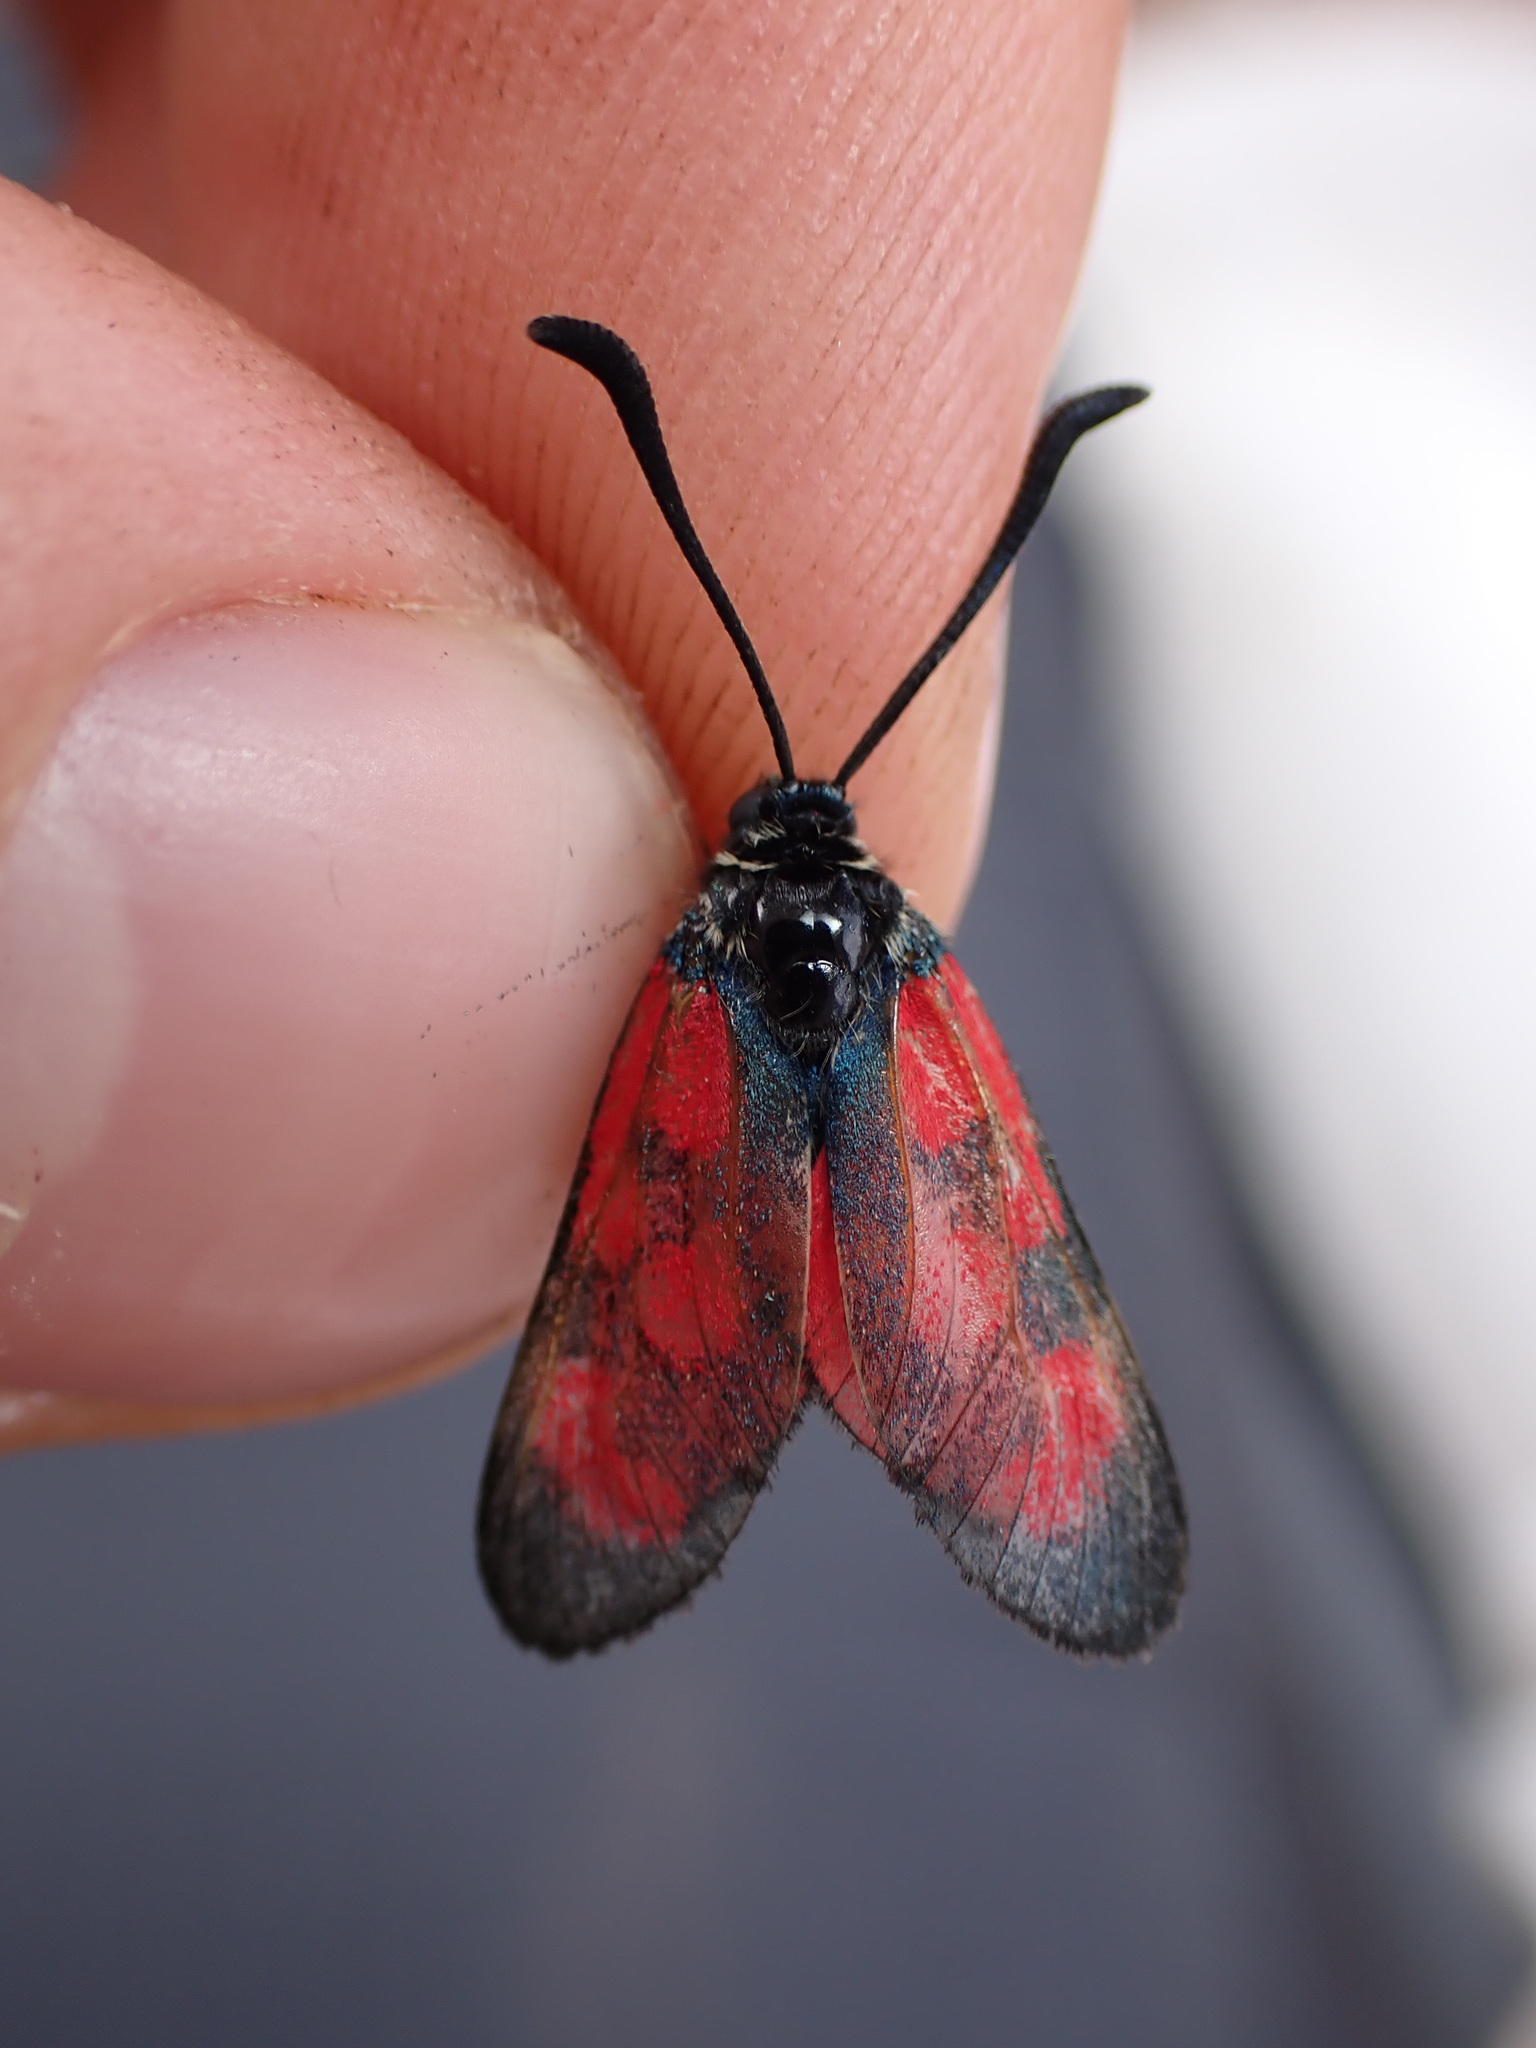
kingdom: Animalia
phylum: Arthropoda
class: Insecta
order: Lepidoptera
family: Zygaenidae
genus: Zygaena
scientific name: Zygaena loti
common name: Slender scotch burnet
